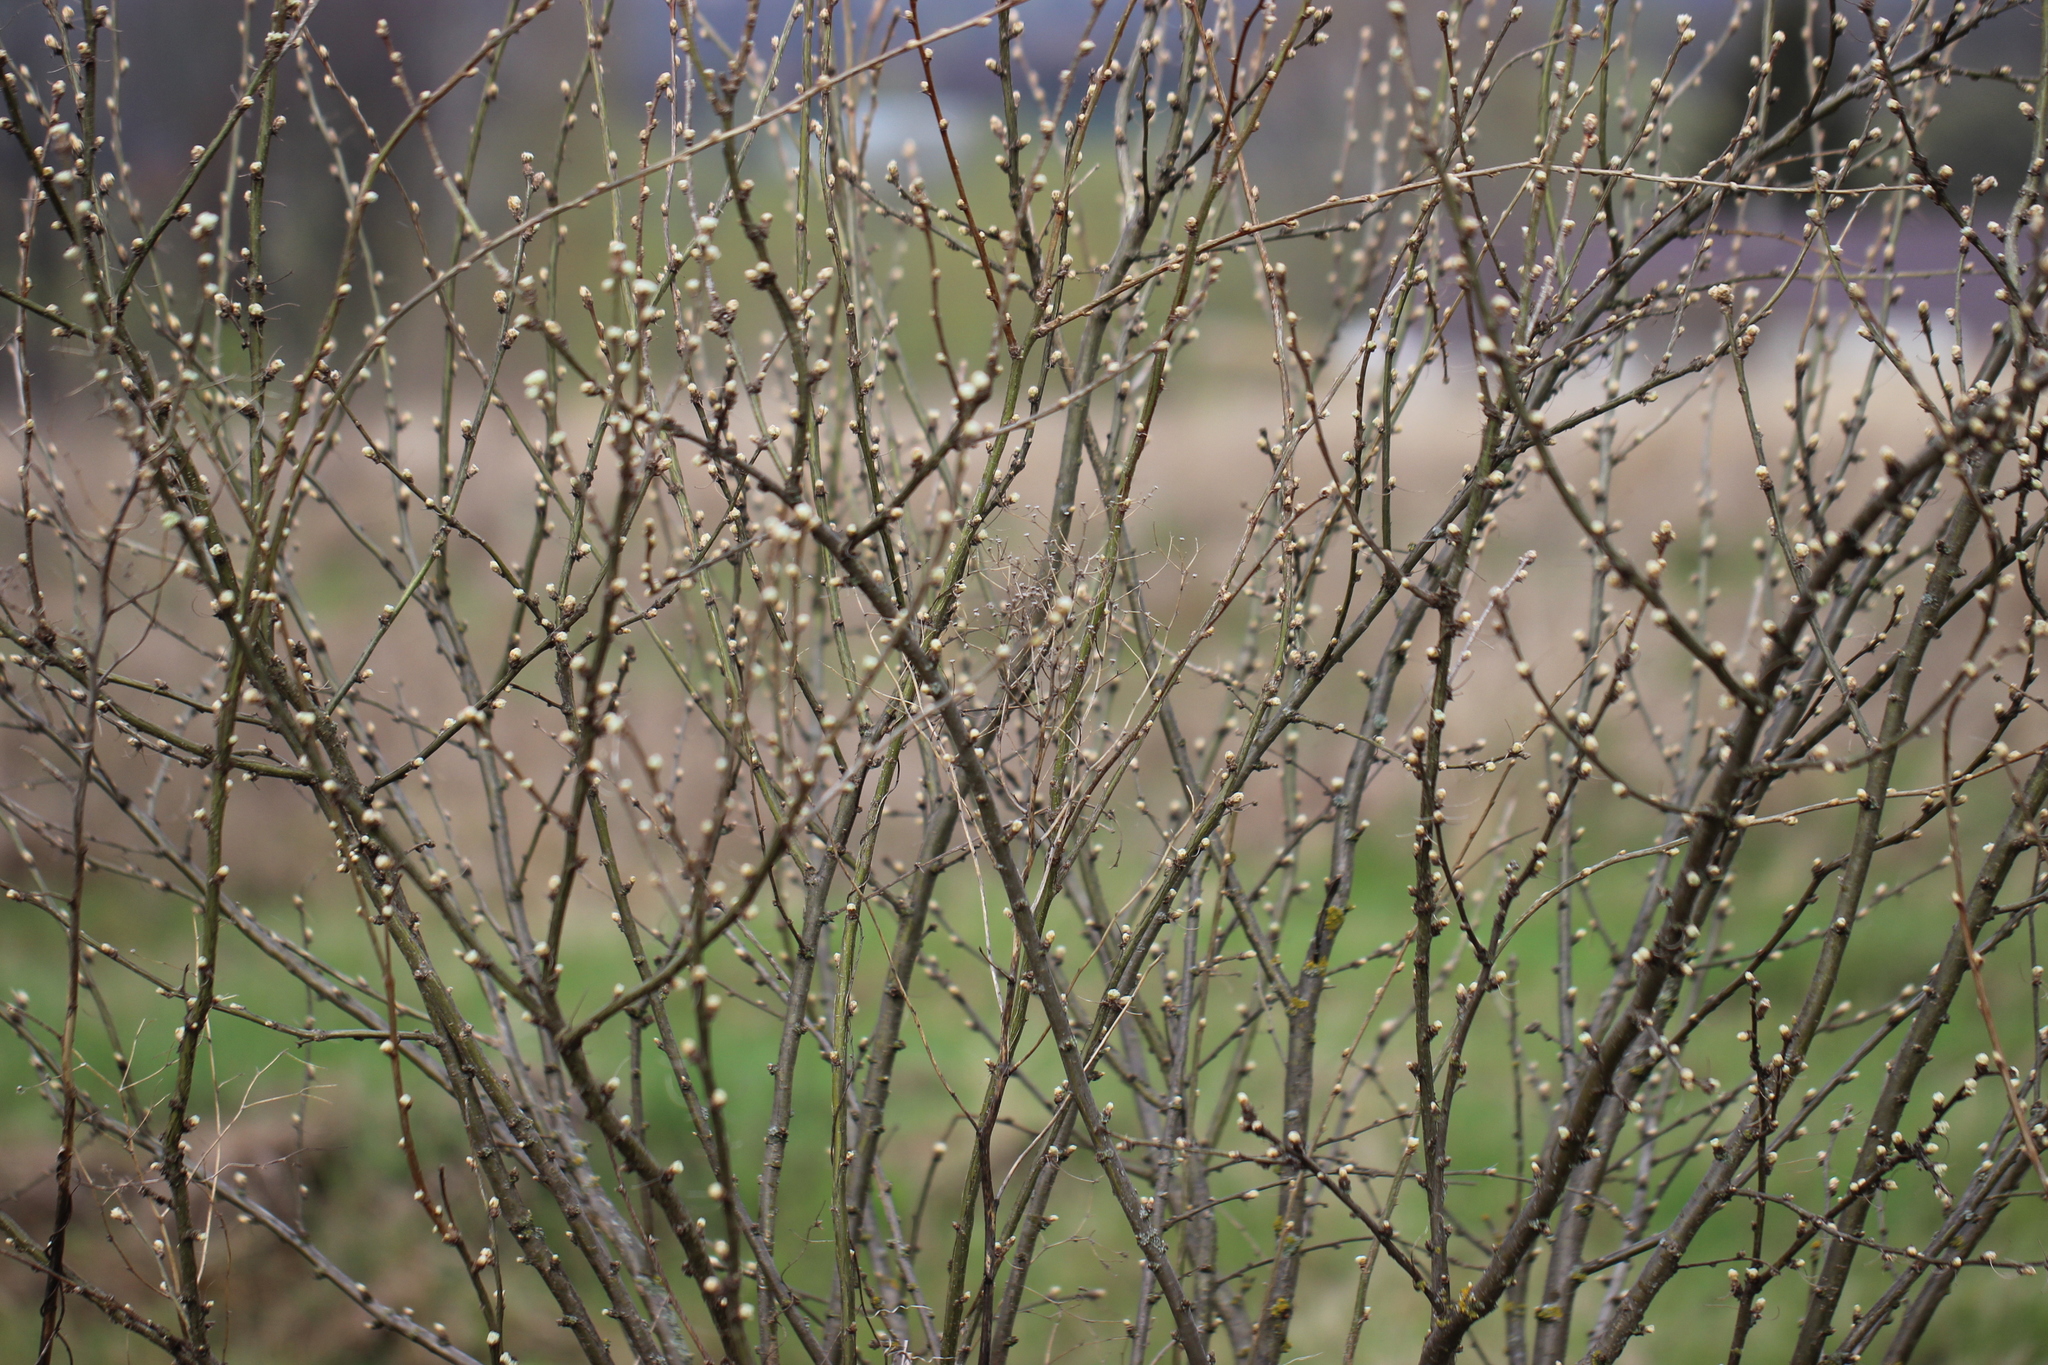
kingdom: Plantae
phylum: Tracheophyta
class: Magnoliopsida
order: Fabales
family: Fabaceae
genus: Caragana
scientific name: Caragana arborescens
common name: Siberian peashrub
